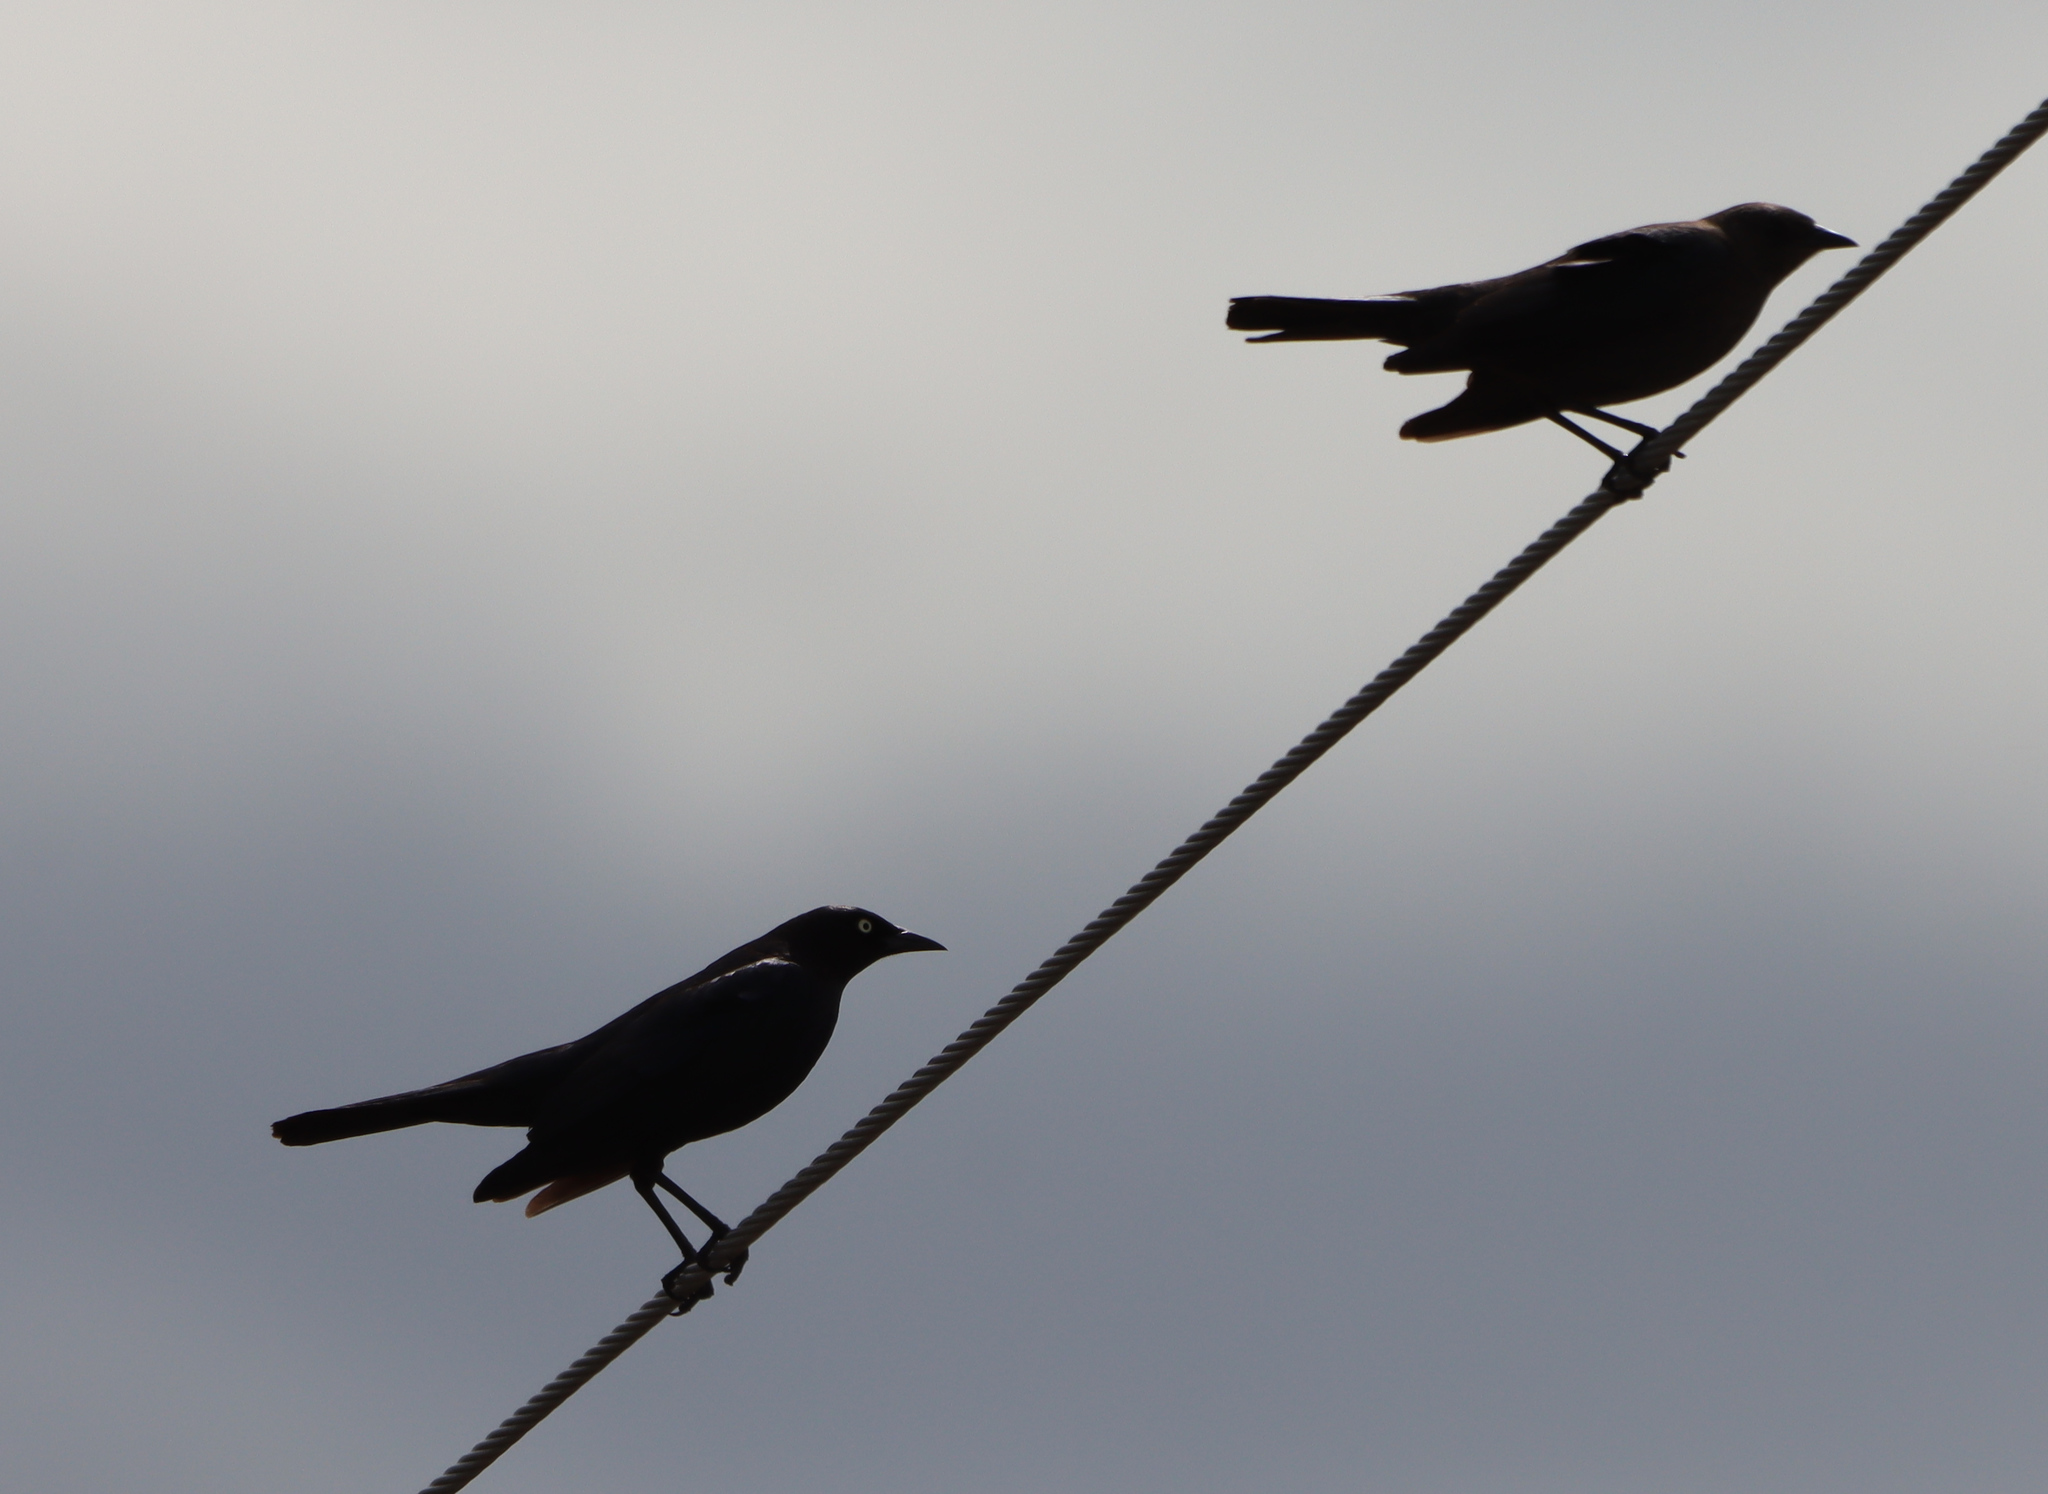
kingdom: Animalia
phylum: Chordata
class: Aves
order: Passeriformes
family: Icteridae
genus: Molothrus
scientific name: Molothrus ater
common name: Brown-headed cowbird
